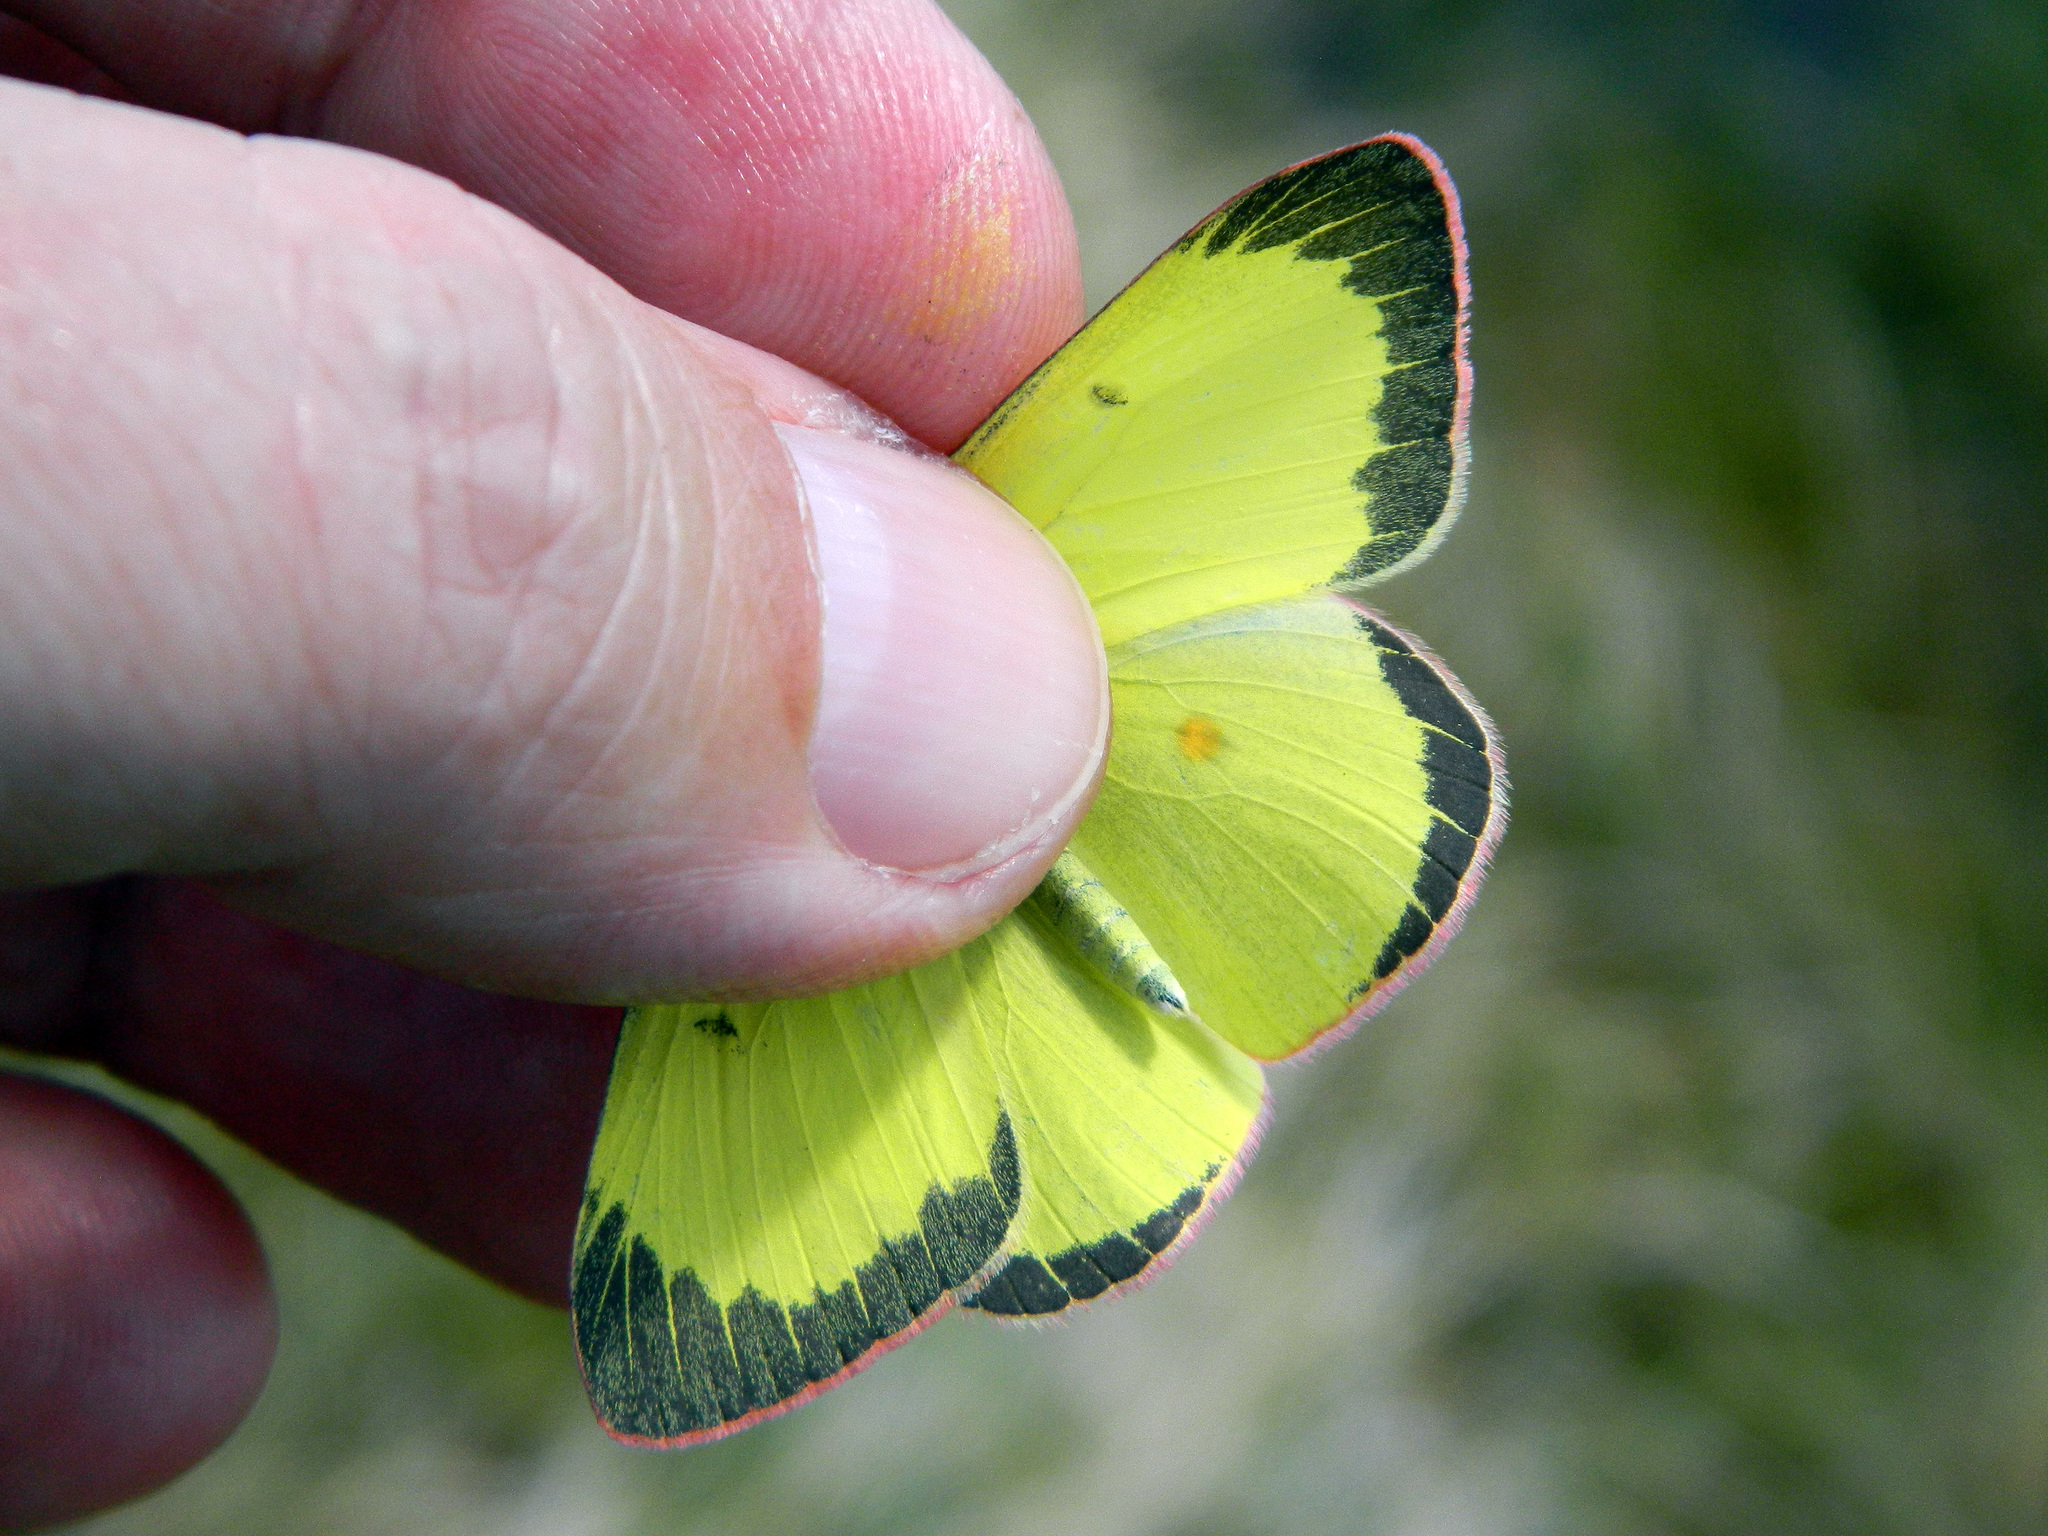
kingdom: Animalia
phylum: Arthropoda
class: Insecta
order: Lepidoptera
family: Pieridae
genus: Colias
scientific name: Colias interior
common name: Pink-edged sulphur
